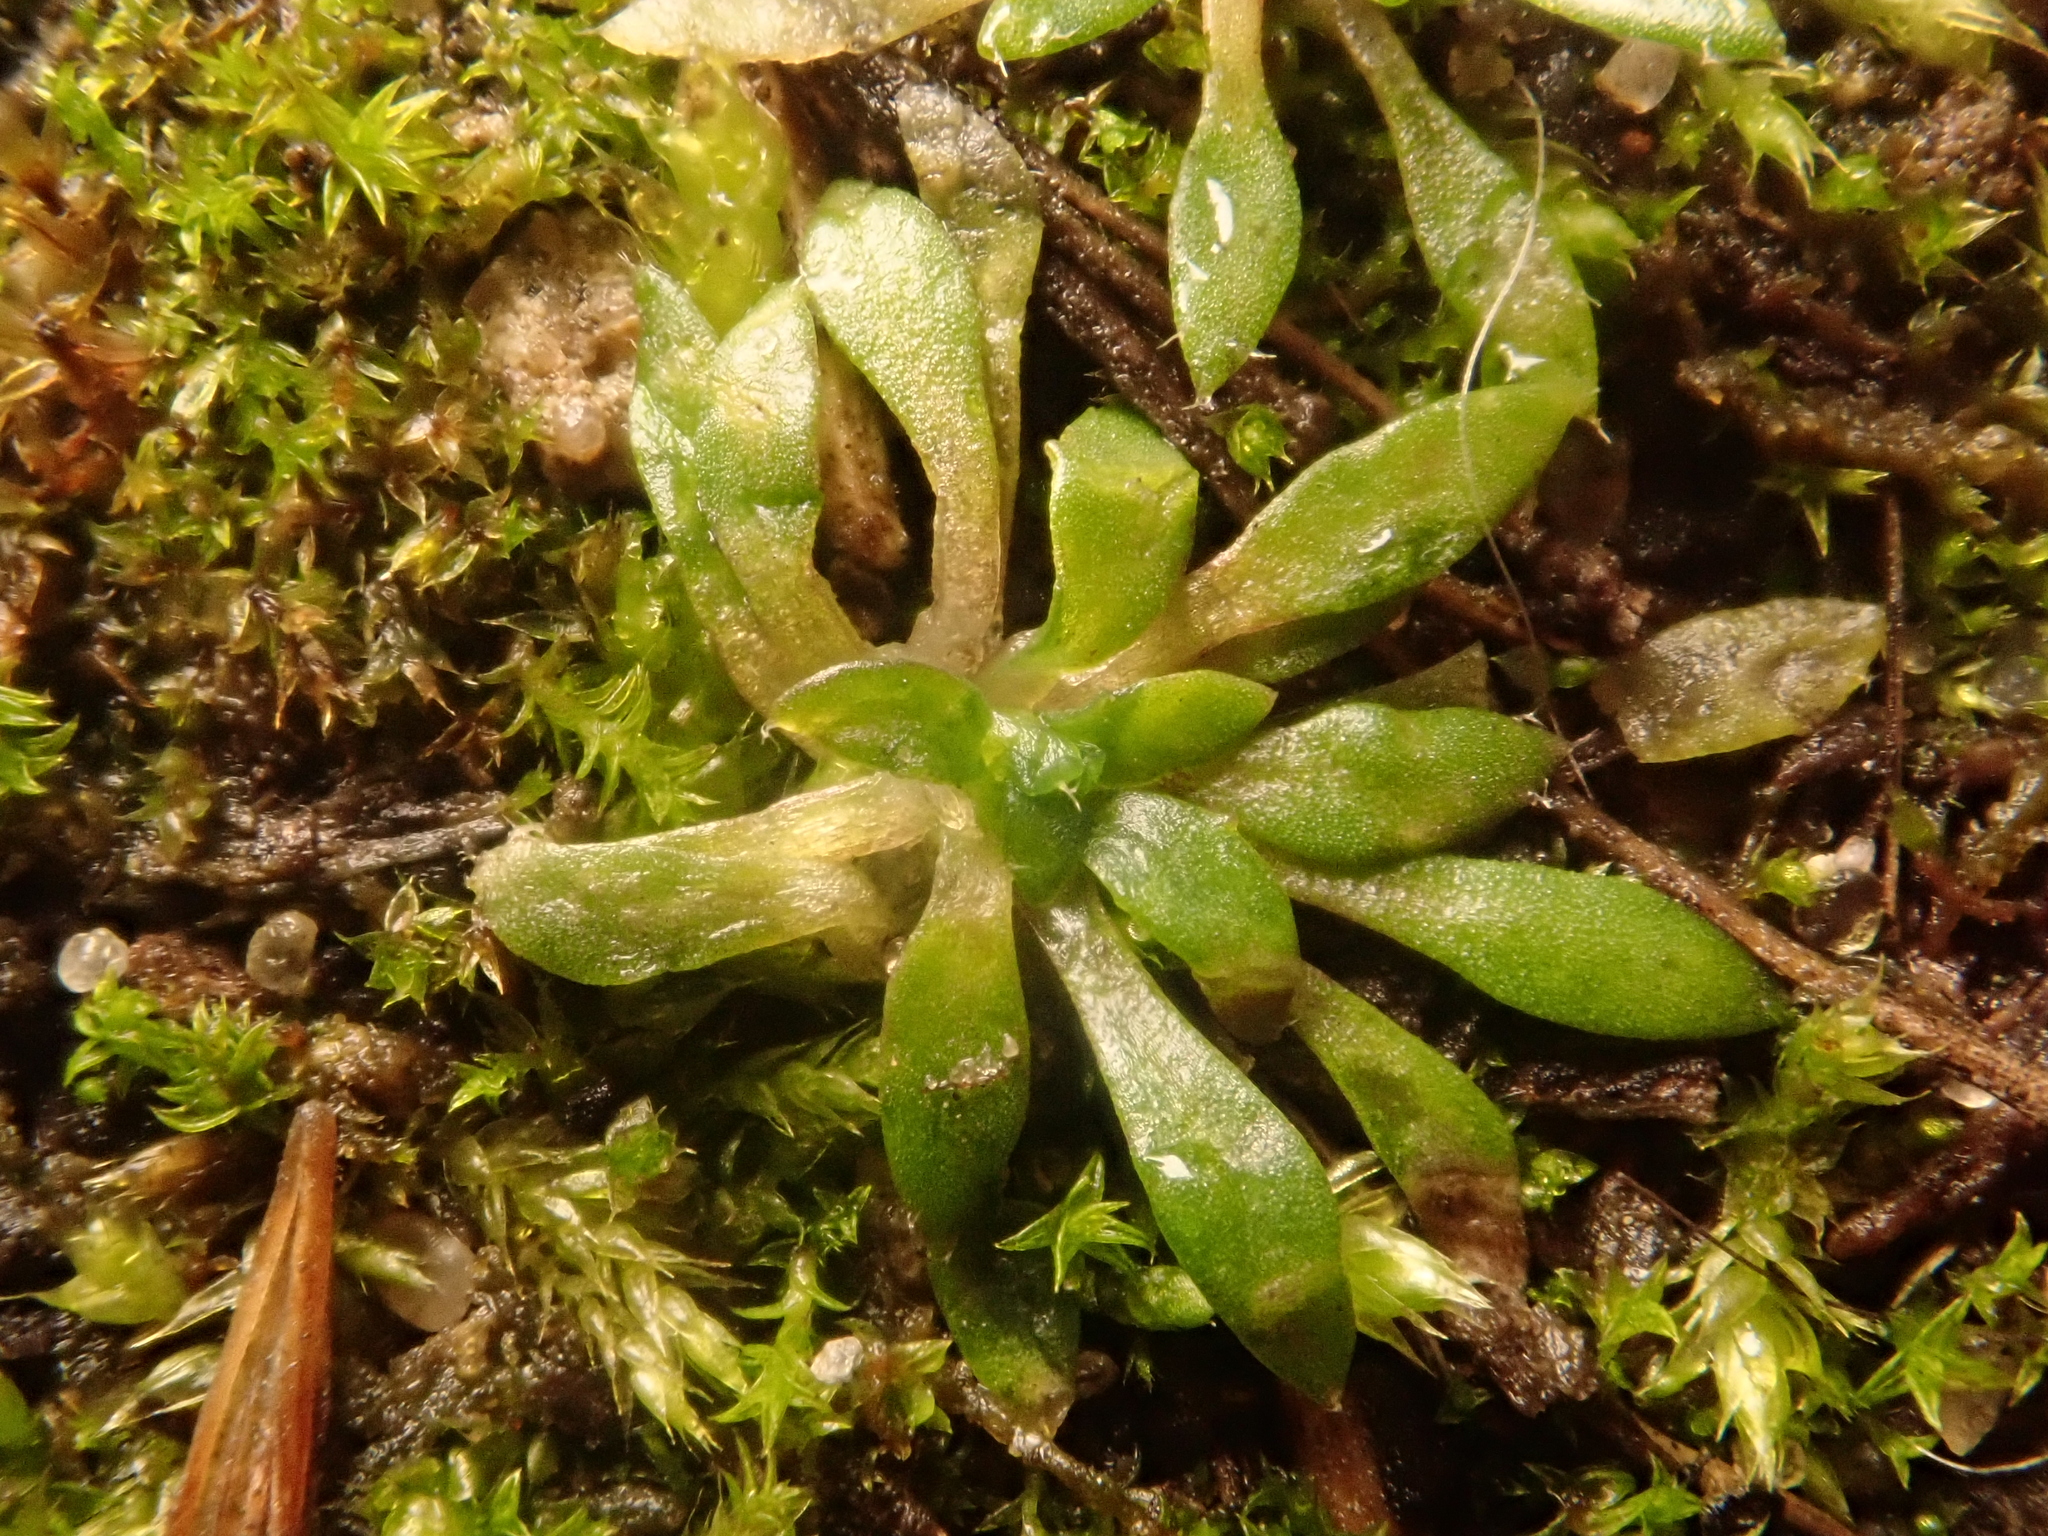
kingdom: Plantae
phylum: Tracheophyta
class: Magnoliopsida
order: Brassicales
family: Brassicaceae
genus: Draba
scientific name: Draba verna
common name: Spring draba
